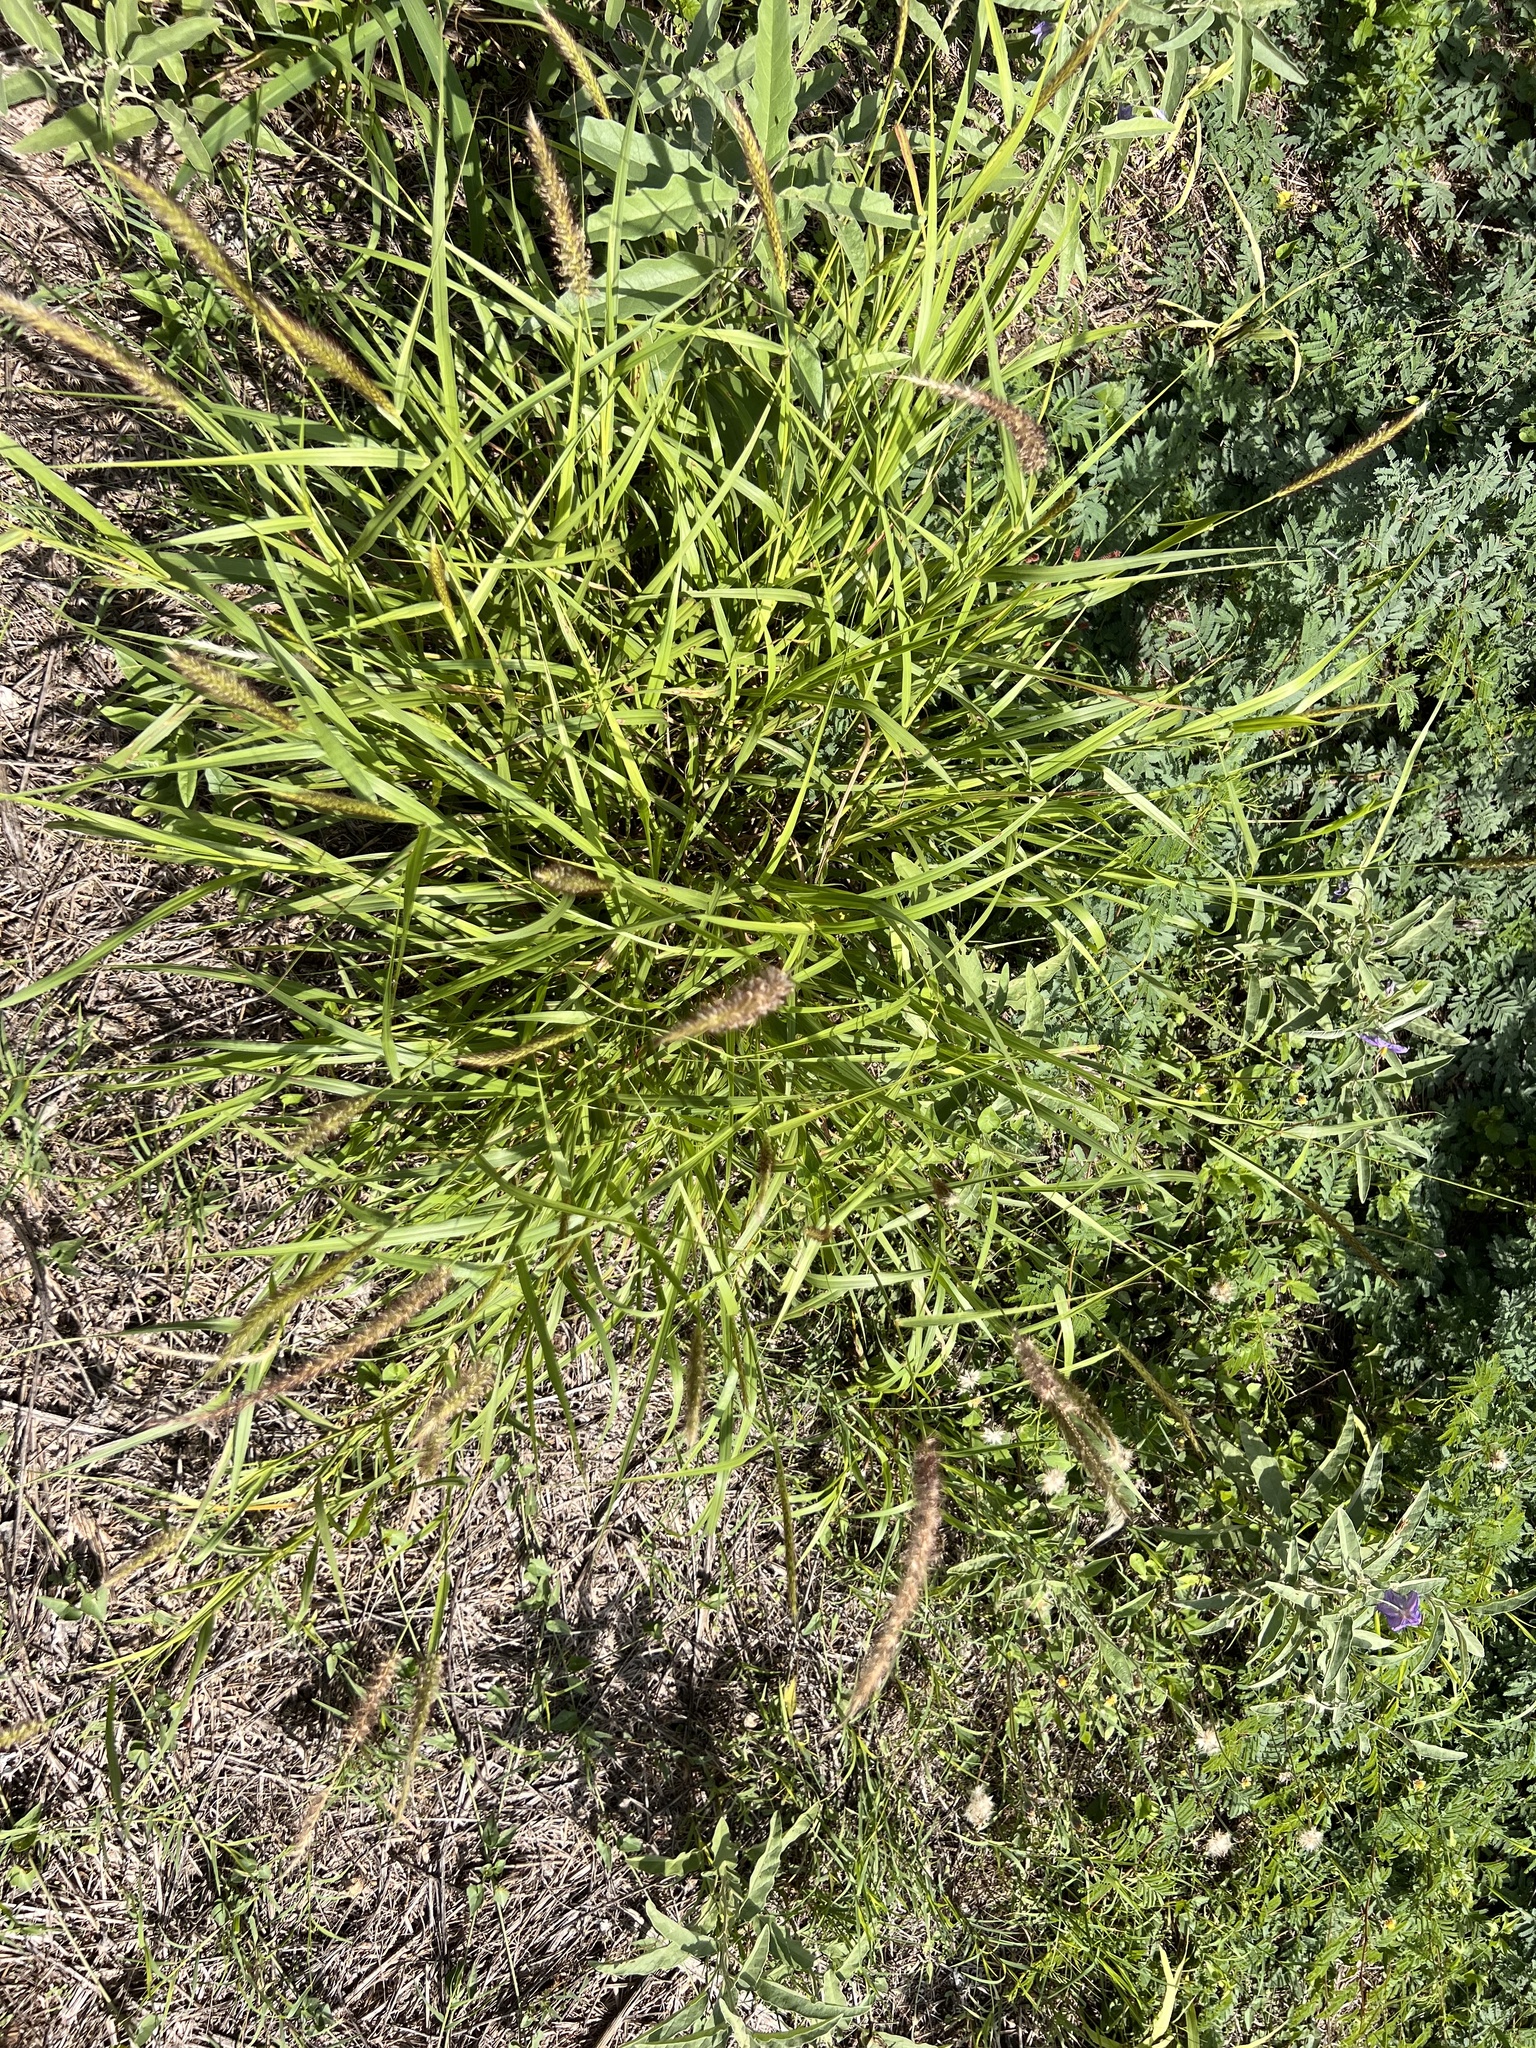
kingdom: Plantae
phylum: Tracheophyta
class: Liliopsida
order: Poales
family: Poaceae
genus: Cenchrus
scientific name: Cenchrus ciliaris
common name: Buffelgrass
